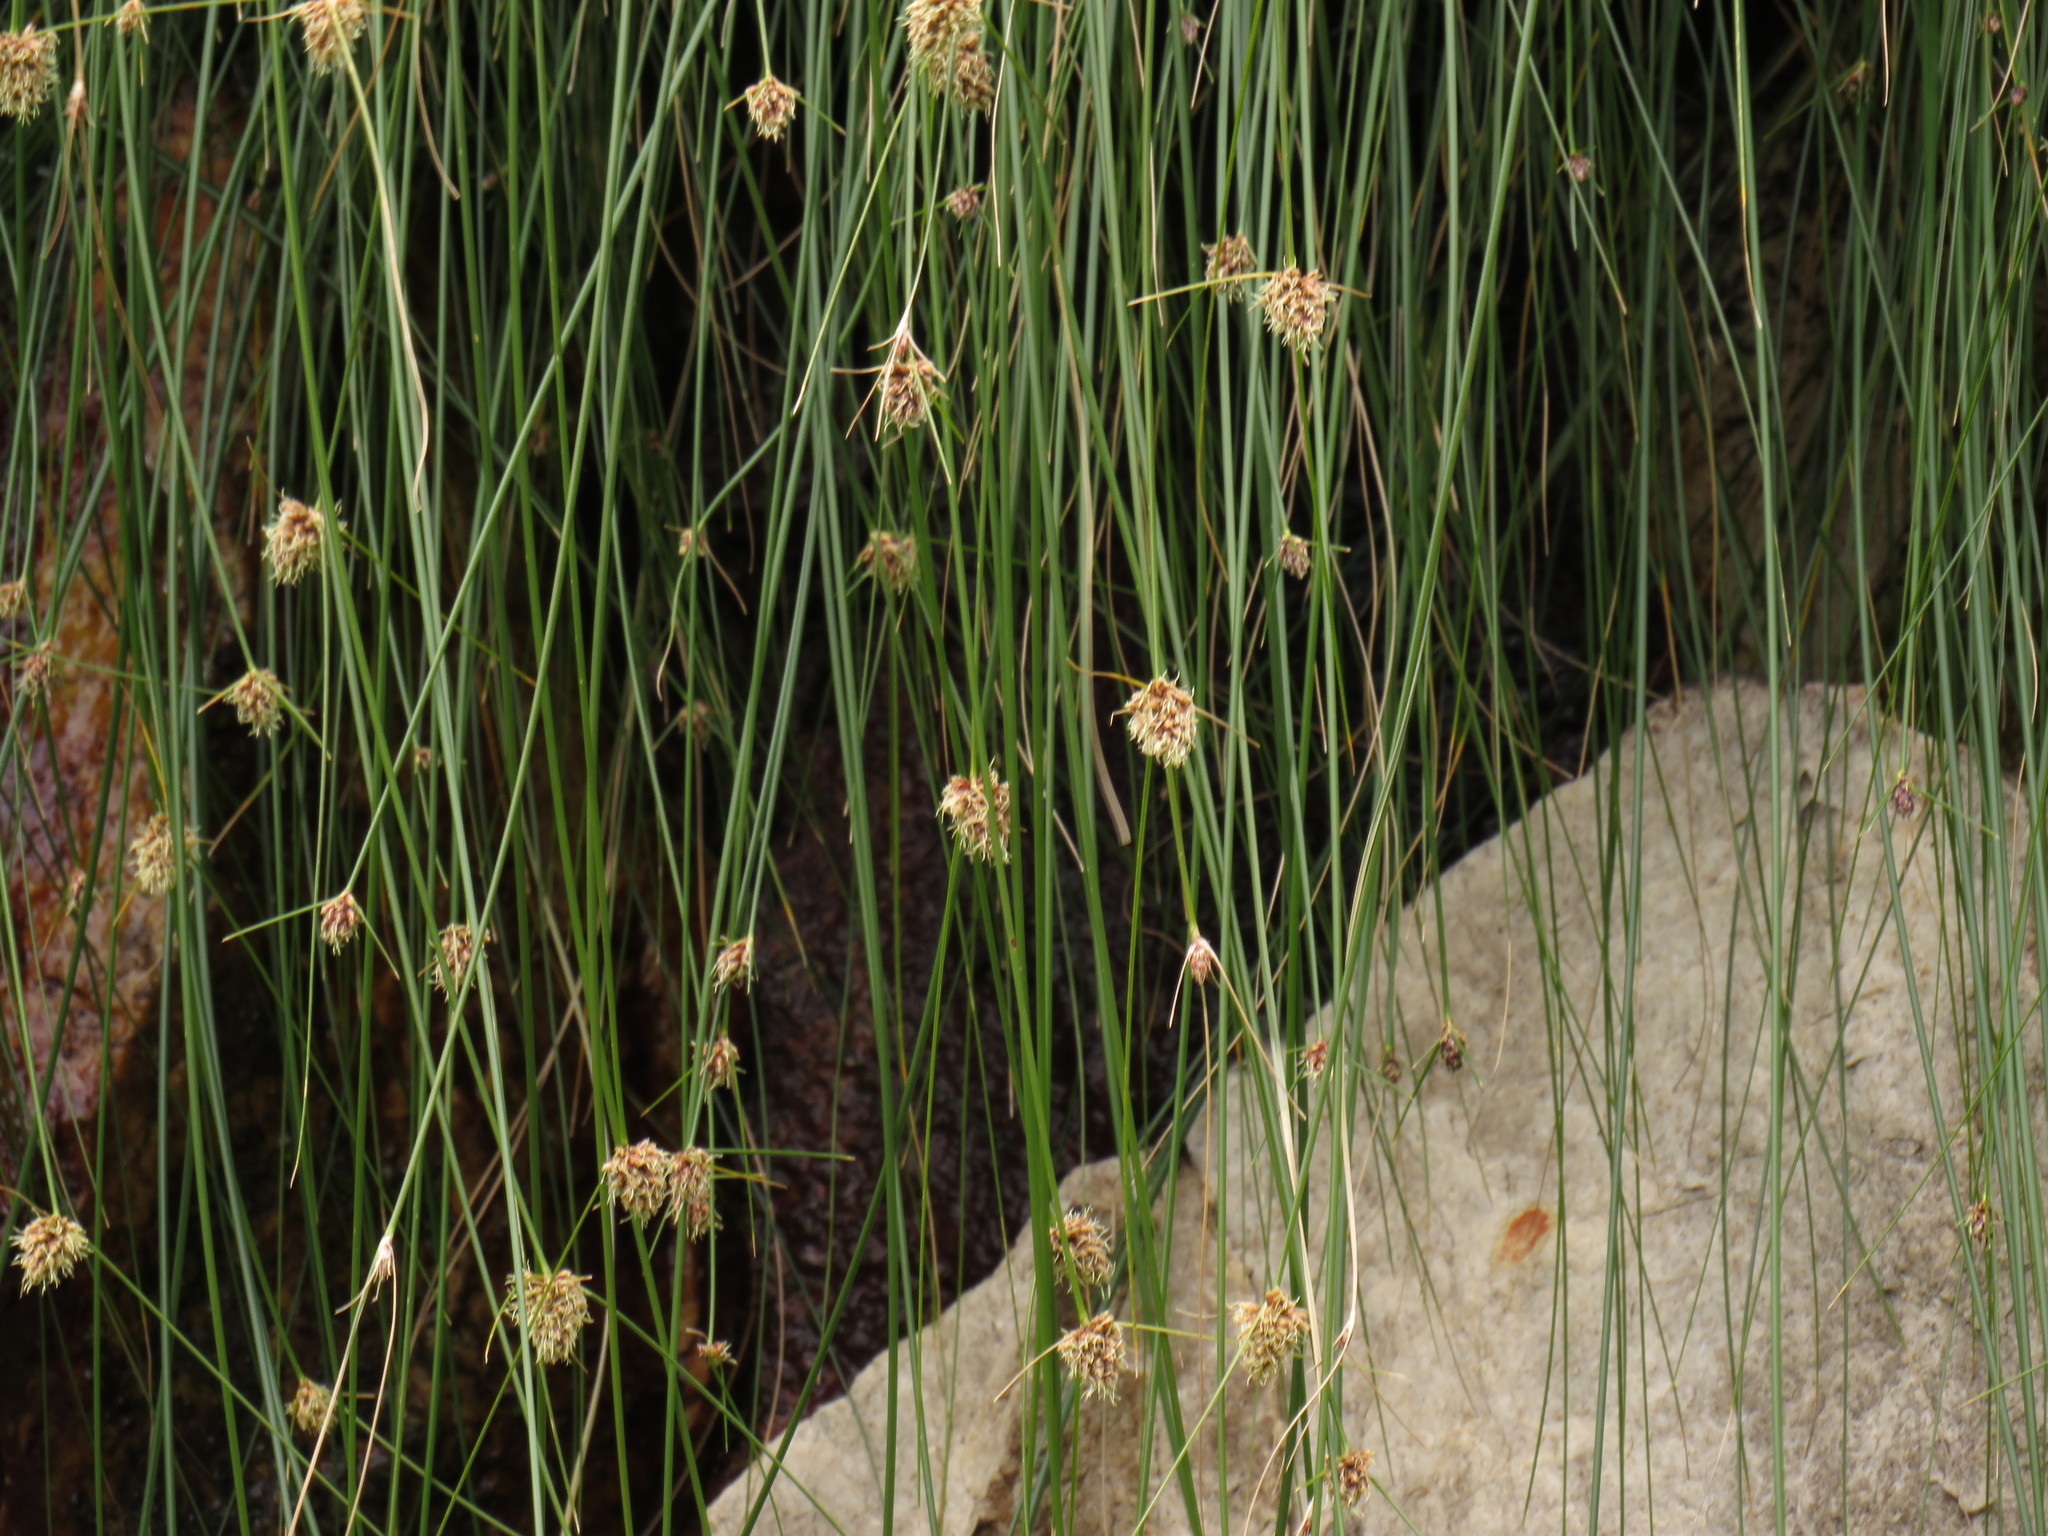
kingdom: Plantae
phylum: Tracheophyta
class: Liliopsida
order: Poales
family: Cyperaceae
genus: Ficinia
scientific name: Ficinia brevifolia
